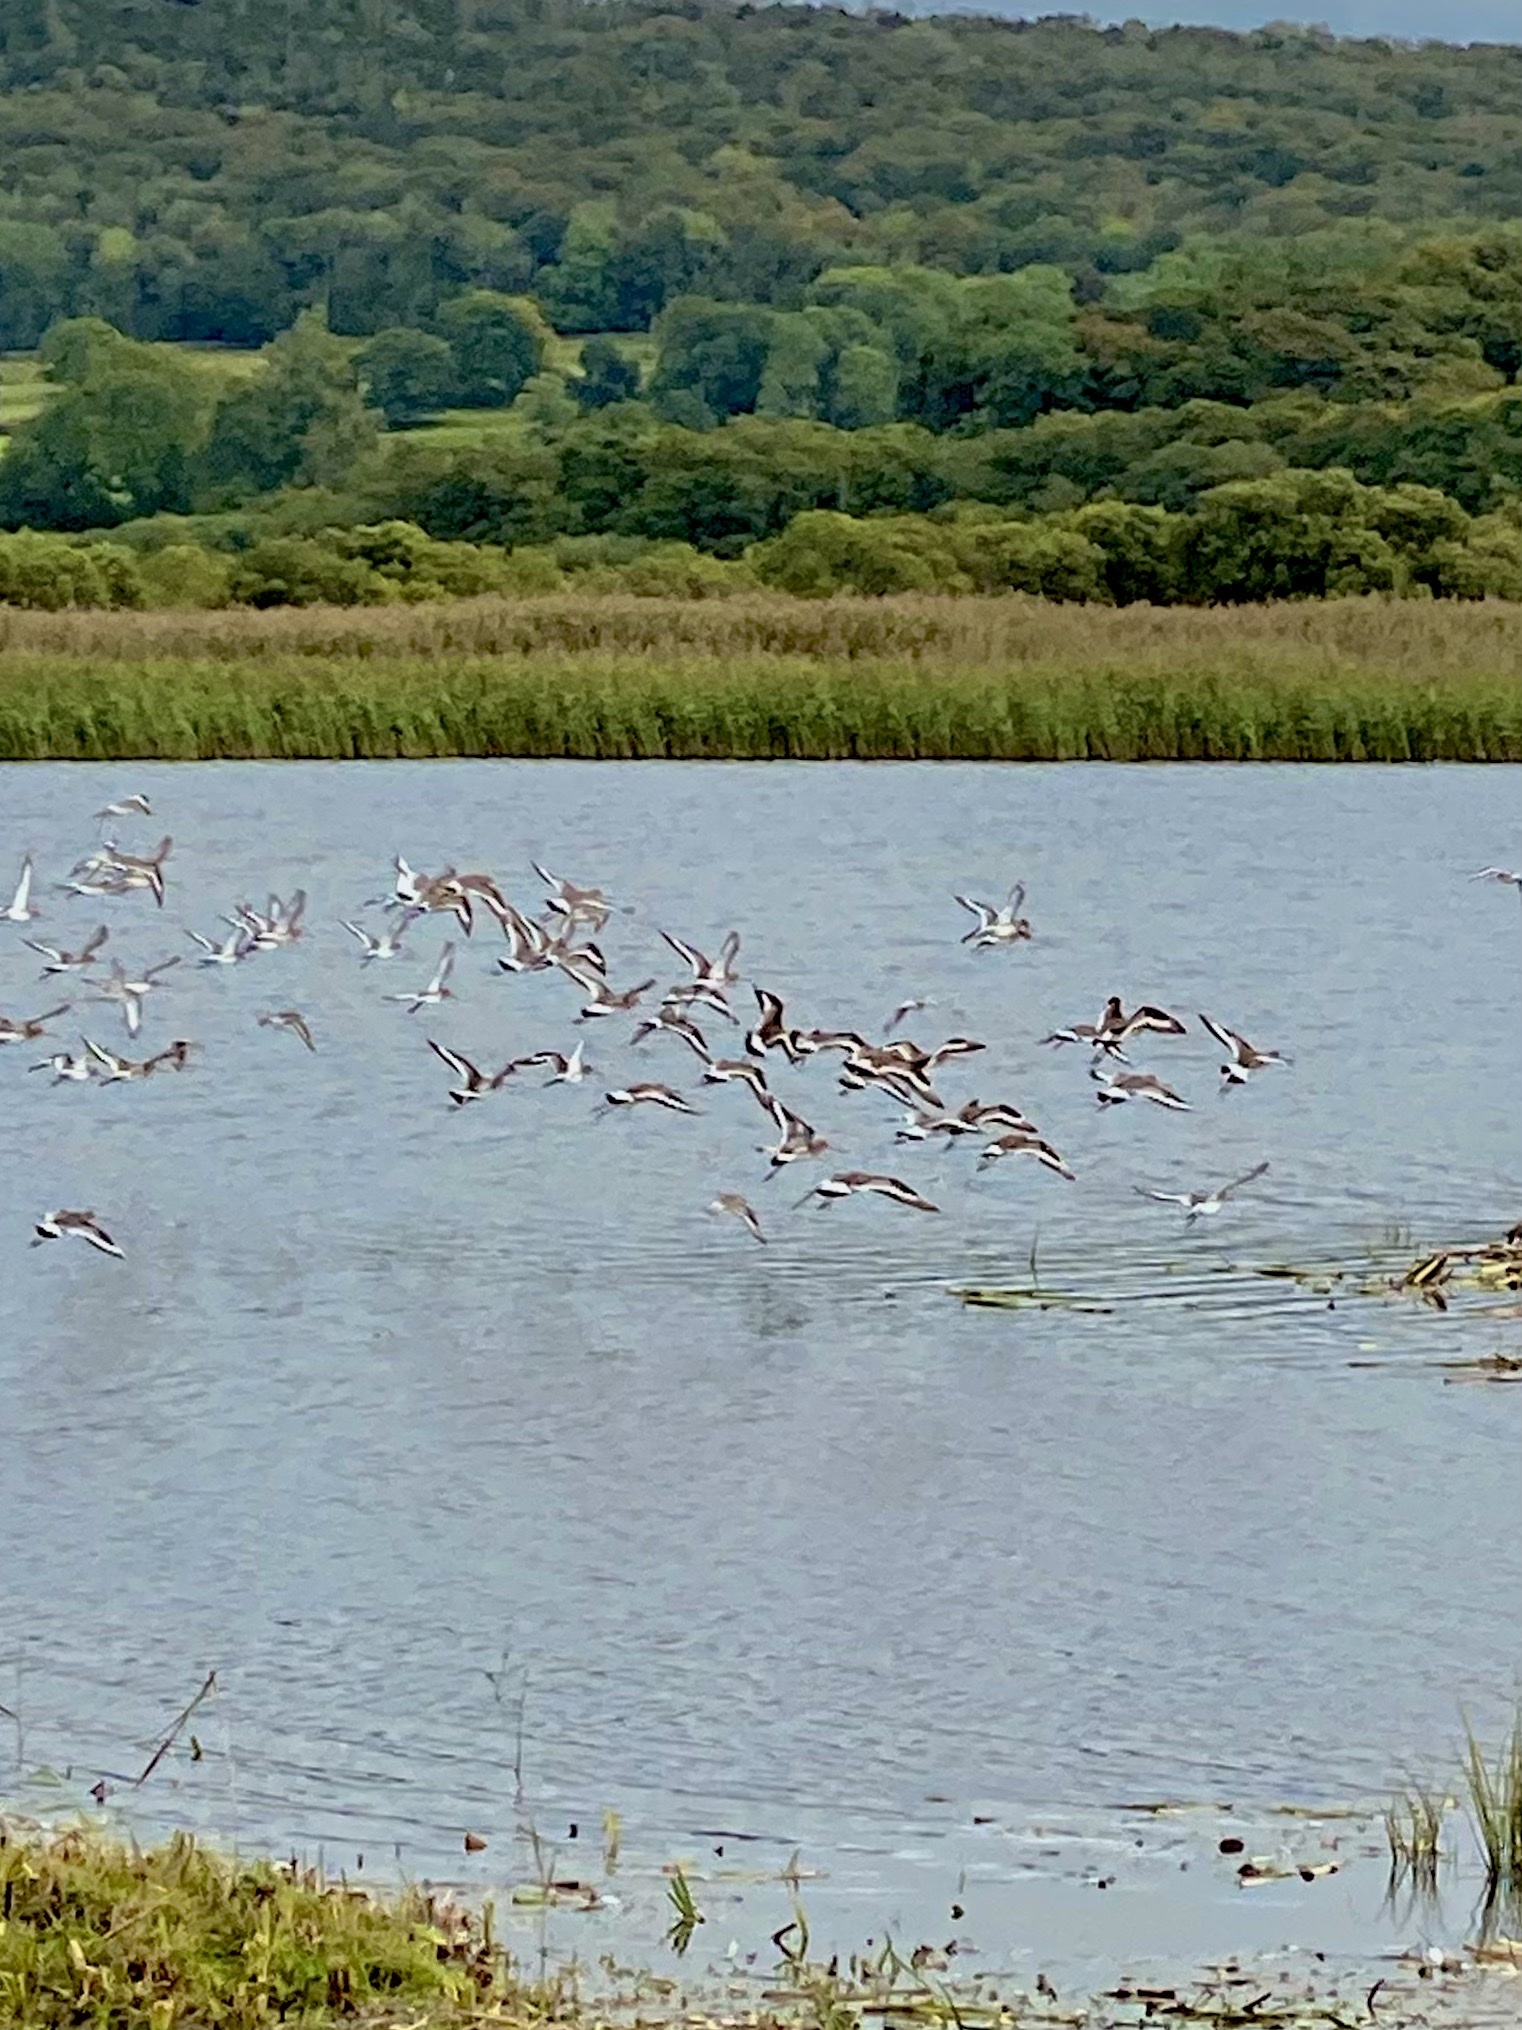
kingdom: Animalia
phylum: Chordata
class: Aves
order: Charadriiformes
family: Scolopacidae
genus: Limosa
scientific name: Limosa limosa
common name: Black-tailed godwit
